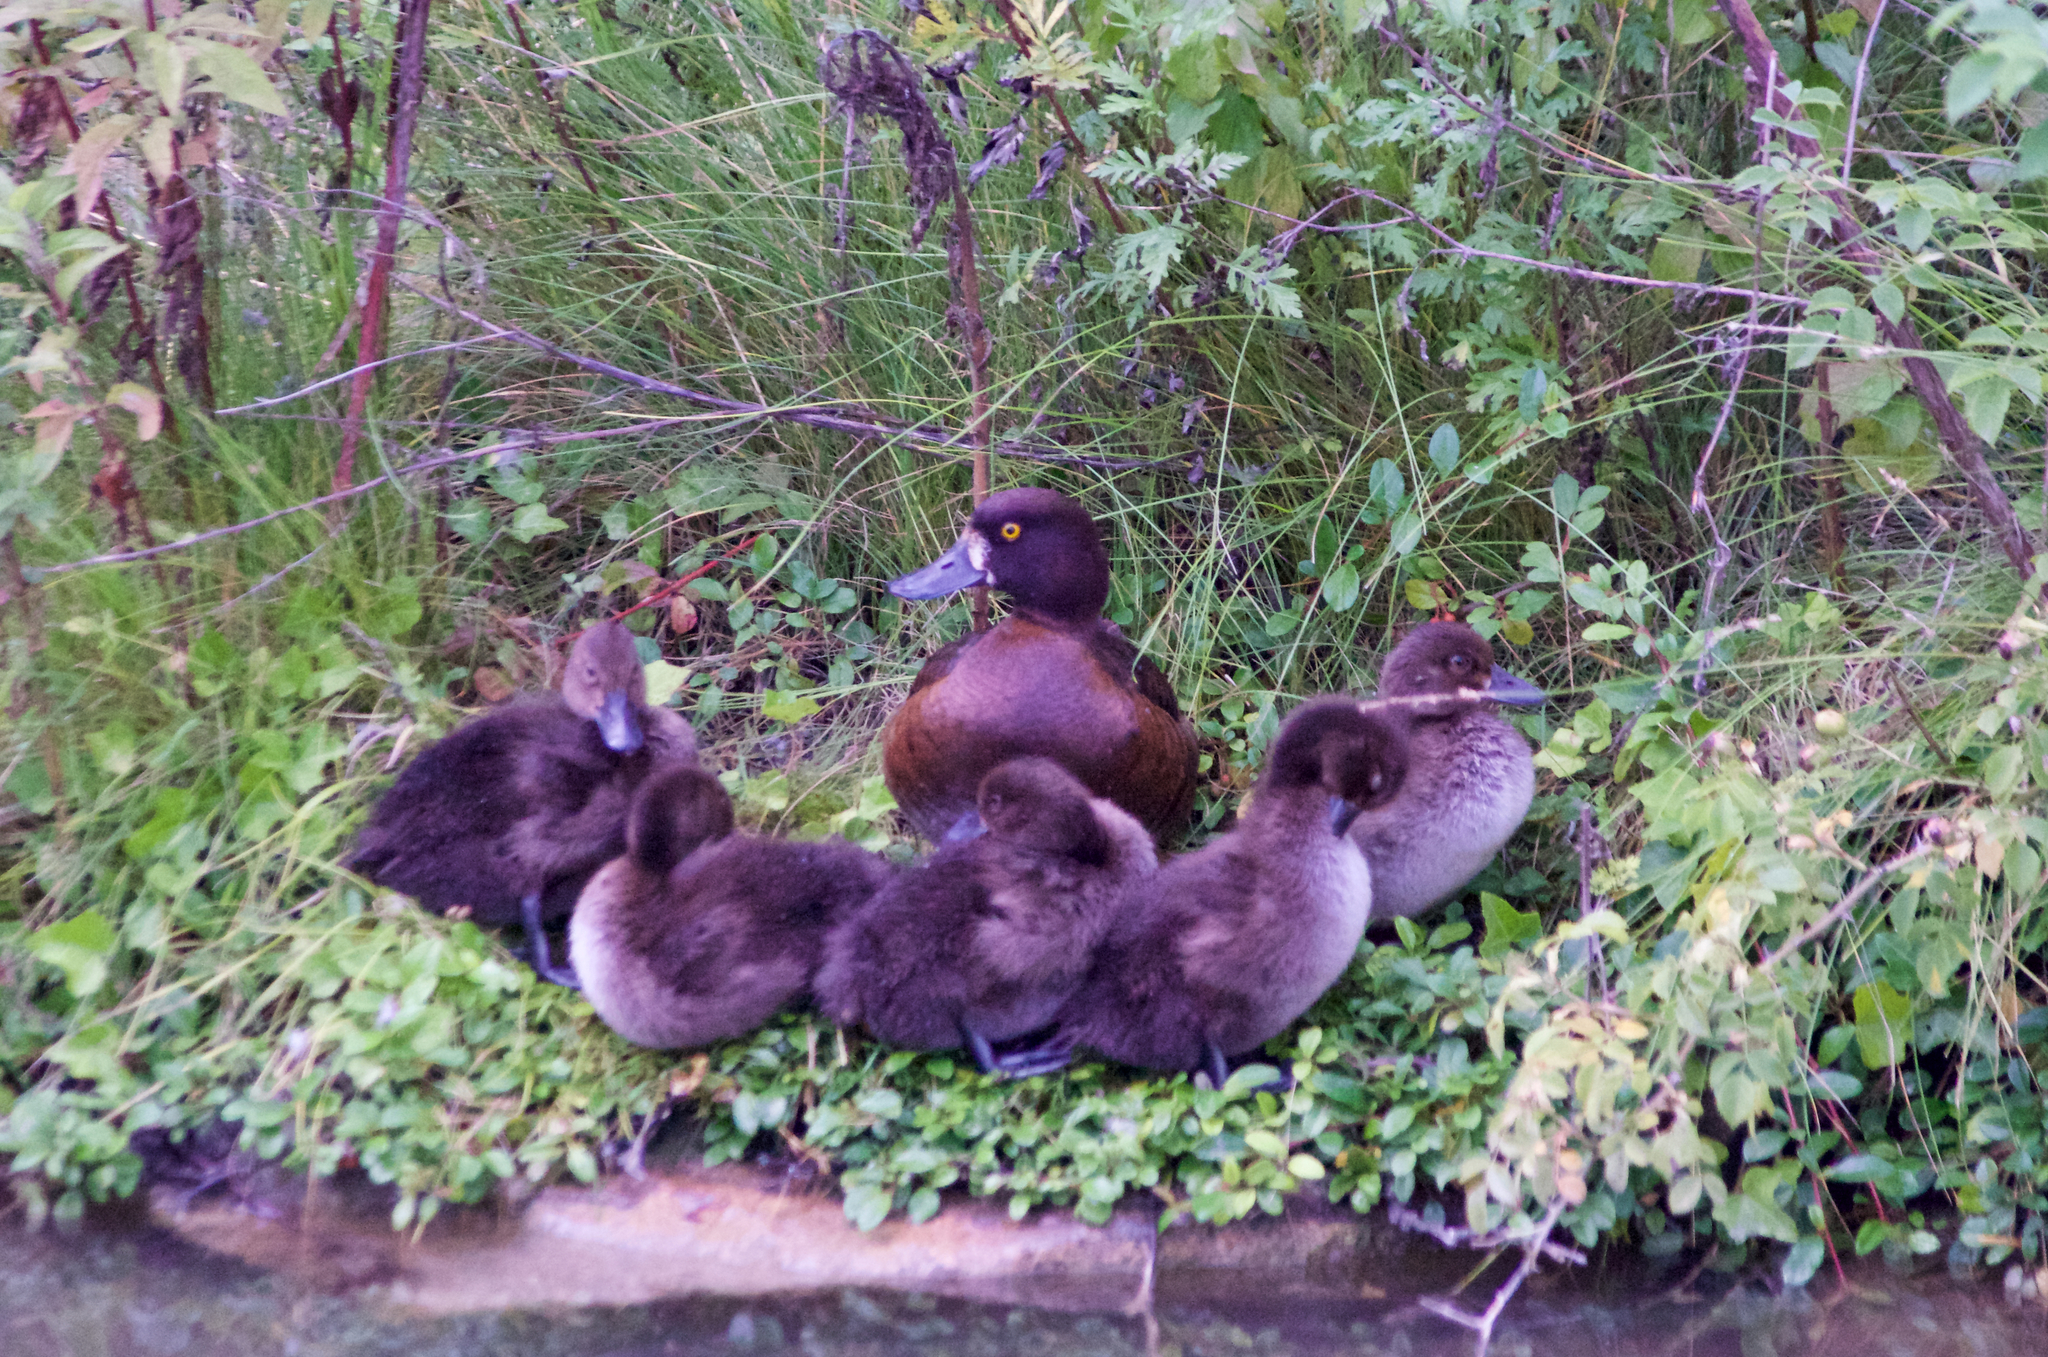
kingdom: Animalia
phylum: Chordata
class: Aves
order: Anseriformes
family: Anatidae
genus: Aythya
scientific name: Aythya fuligula
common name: Tufted duck
